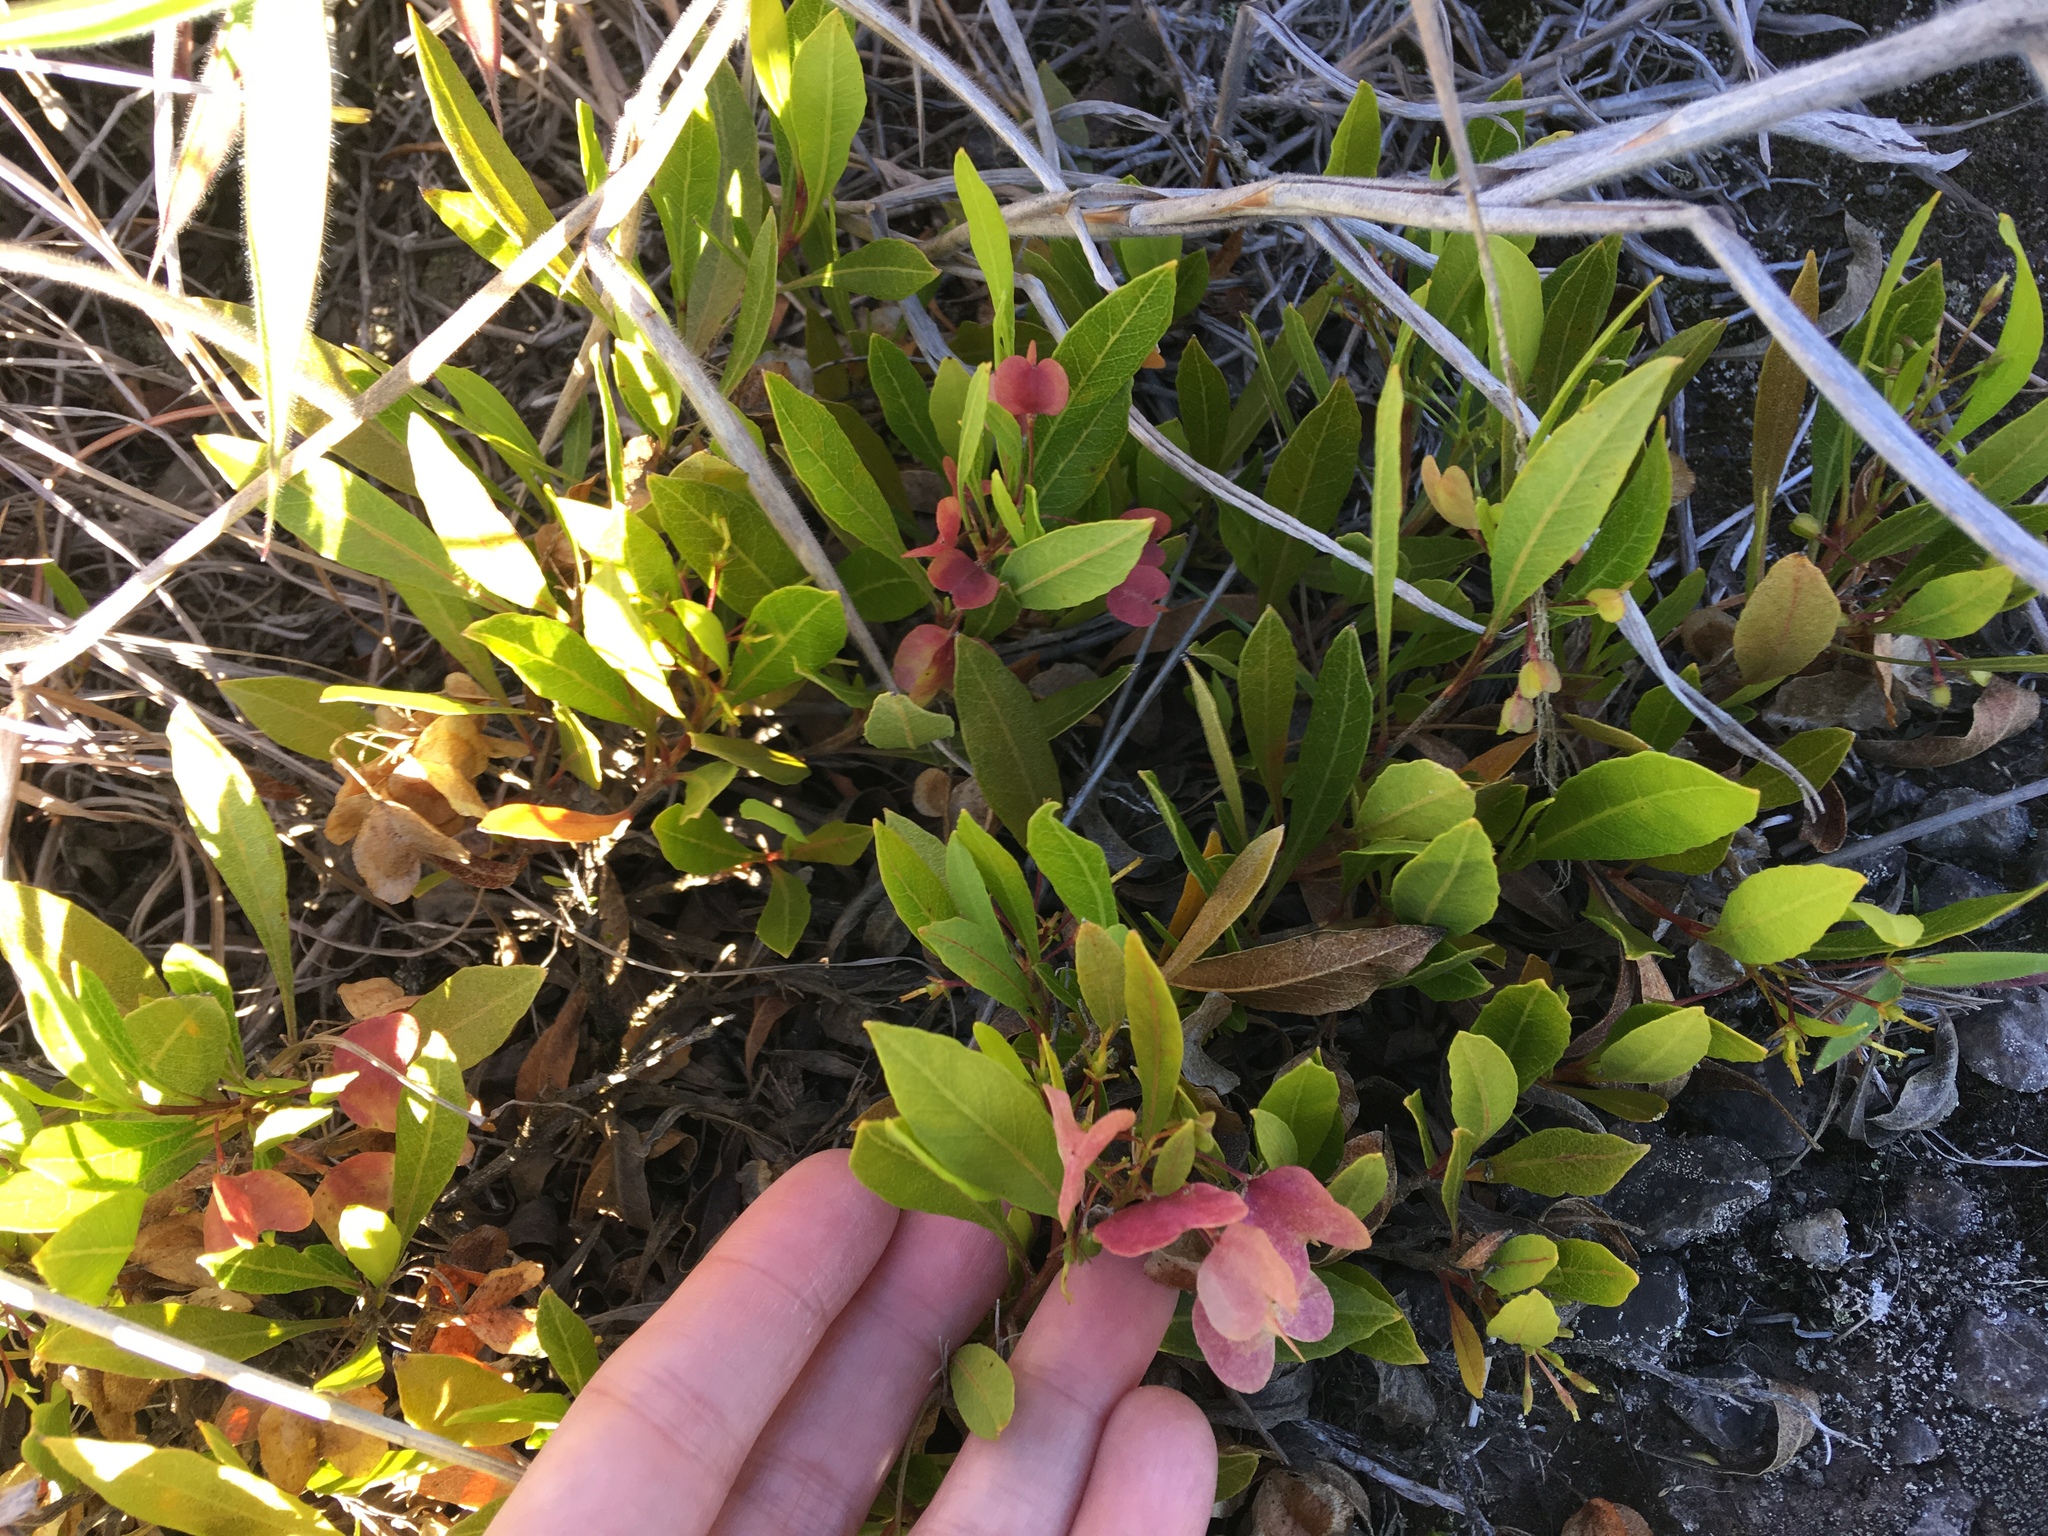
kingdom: Plantae
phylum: Tracheophyta
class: Magnoliopsida
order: Sapindales
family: Sapindaceae
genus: Dodonaea
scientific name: Dodonaea viscosa
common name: Hopbush
